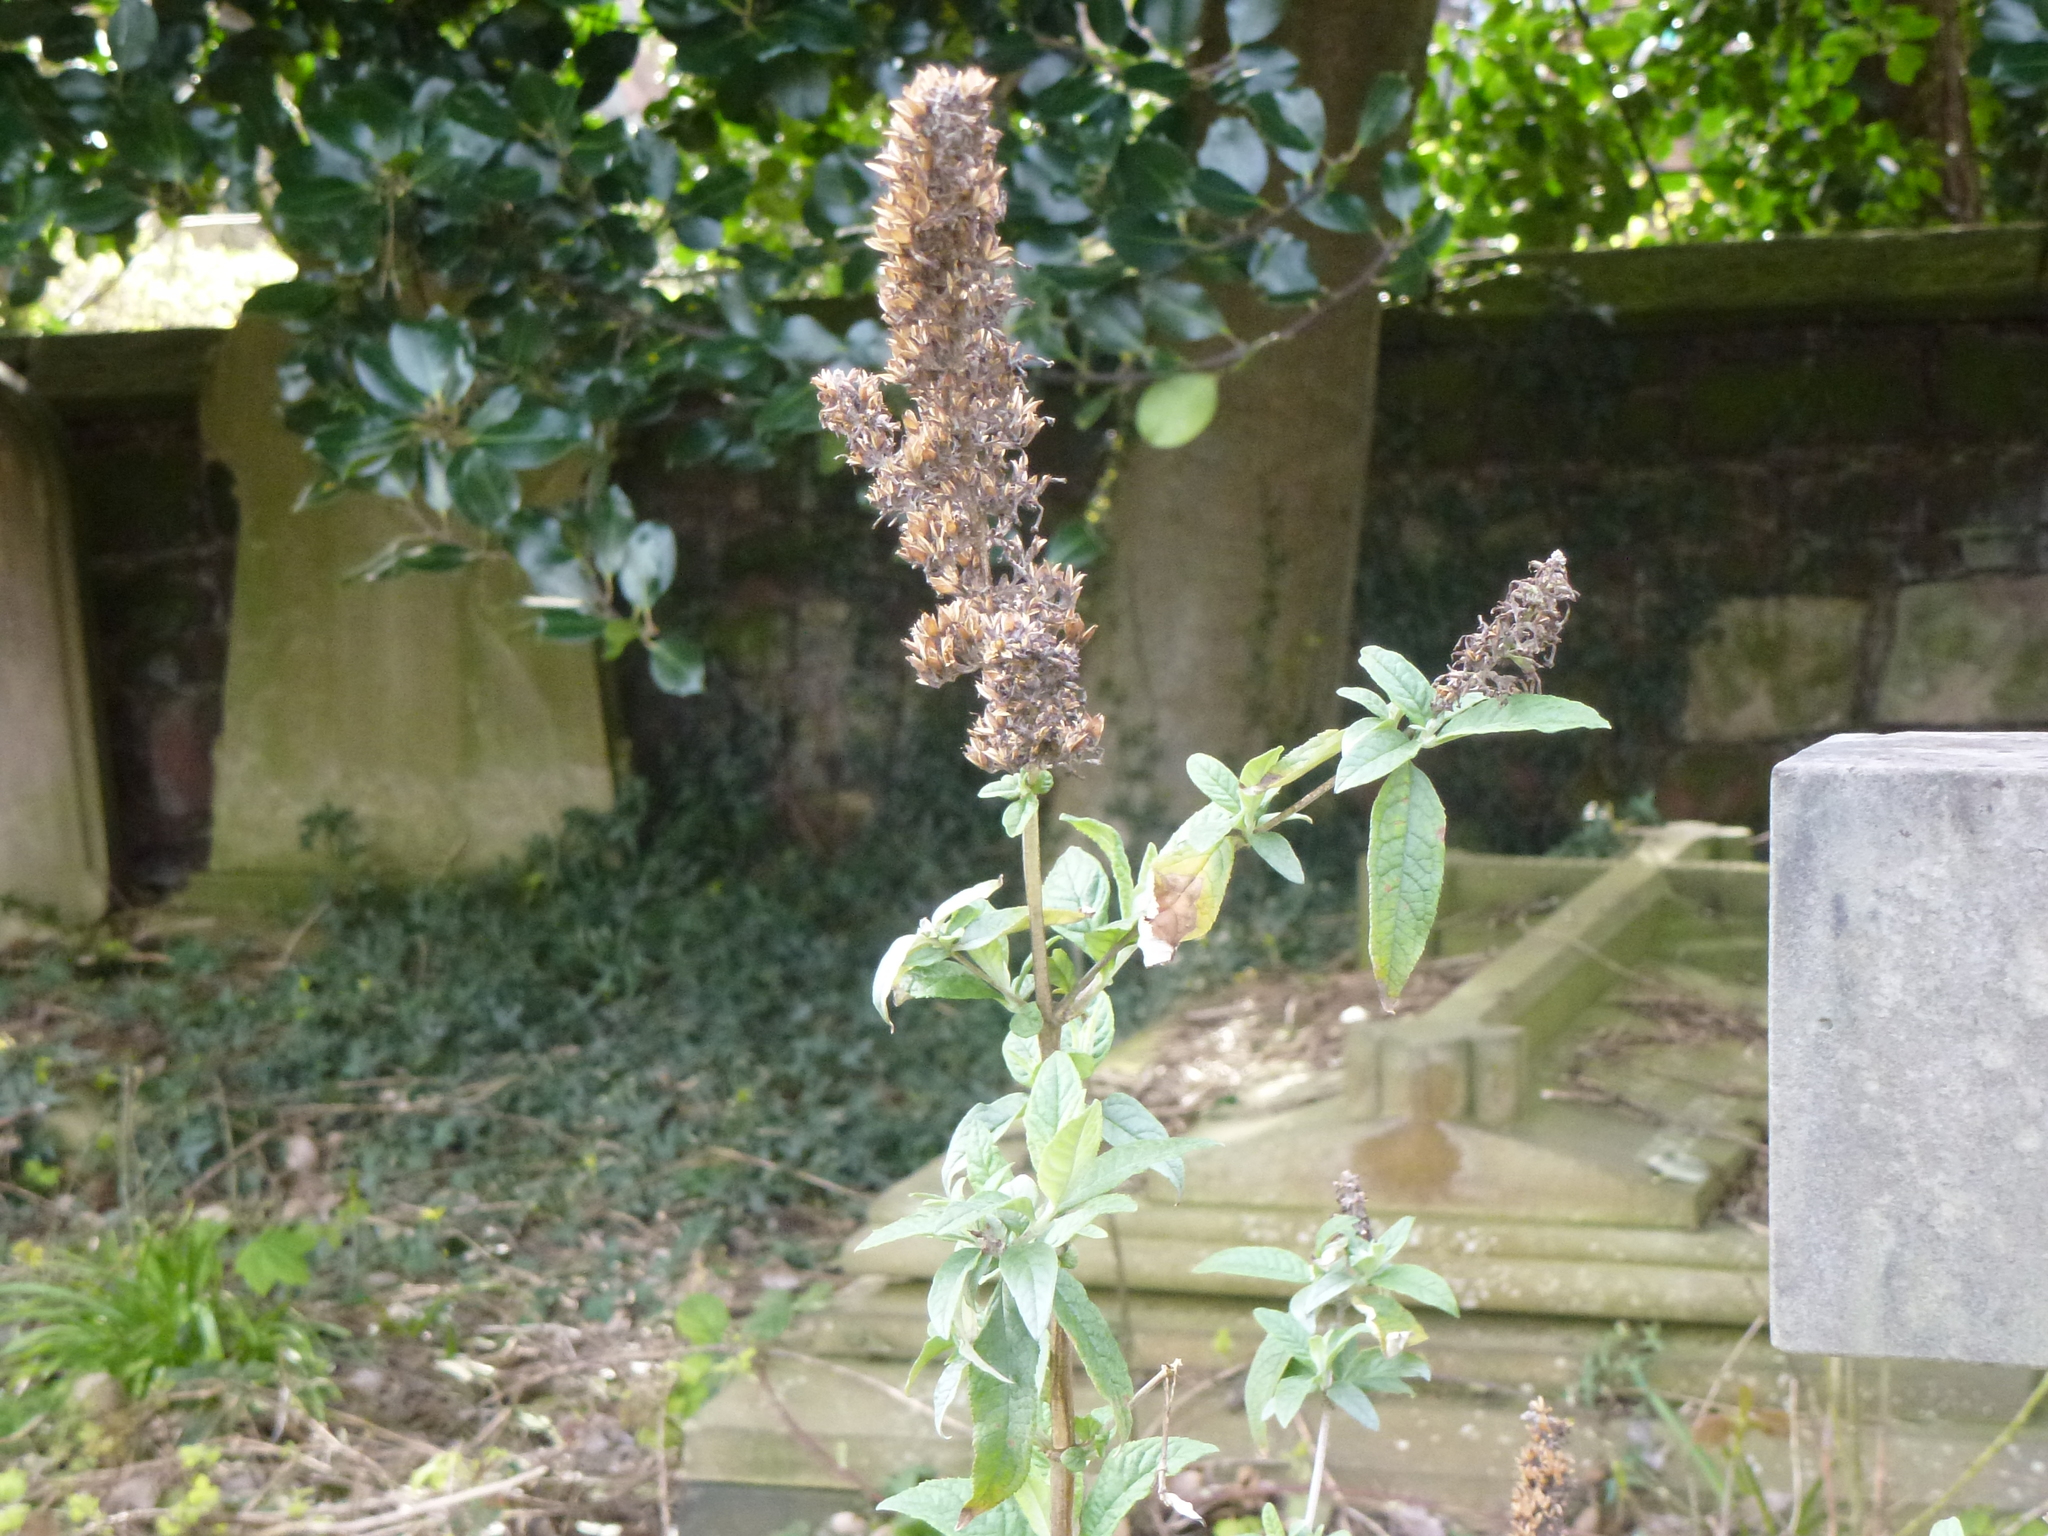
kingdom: Plantae
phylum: Tracheophyta
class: Magnoliopsida
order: Lamiales
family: Scrophulariaceae
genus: Buddleja
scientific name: Buddleja davidii
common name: Butterfly-bush
